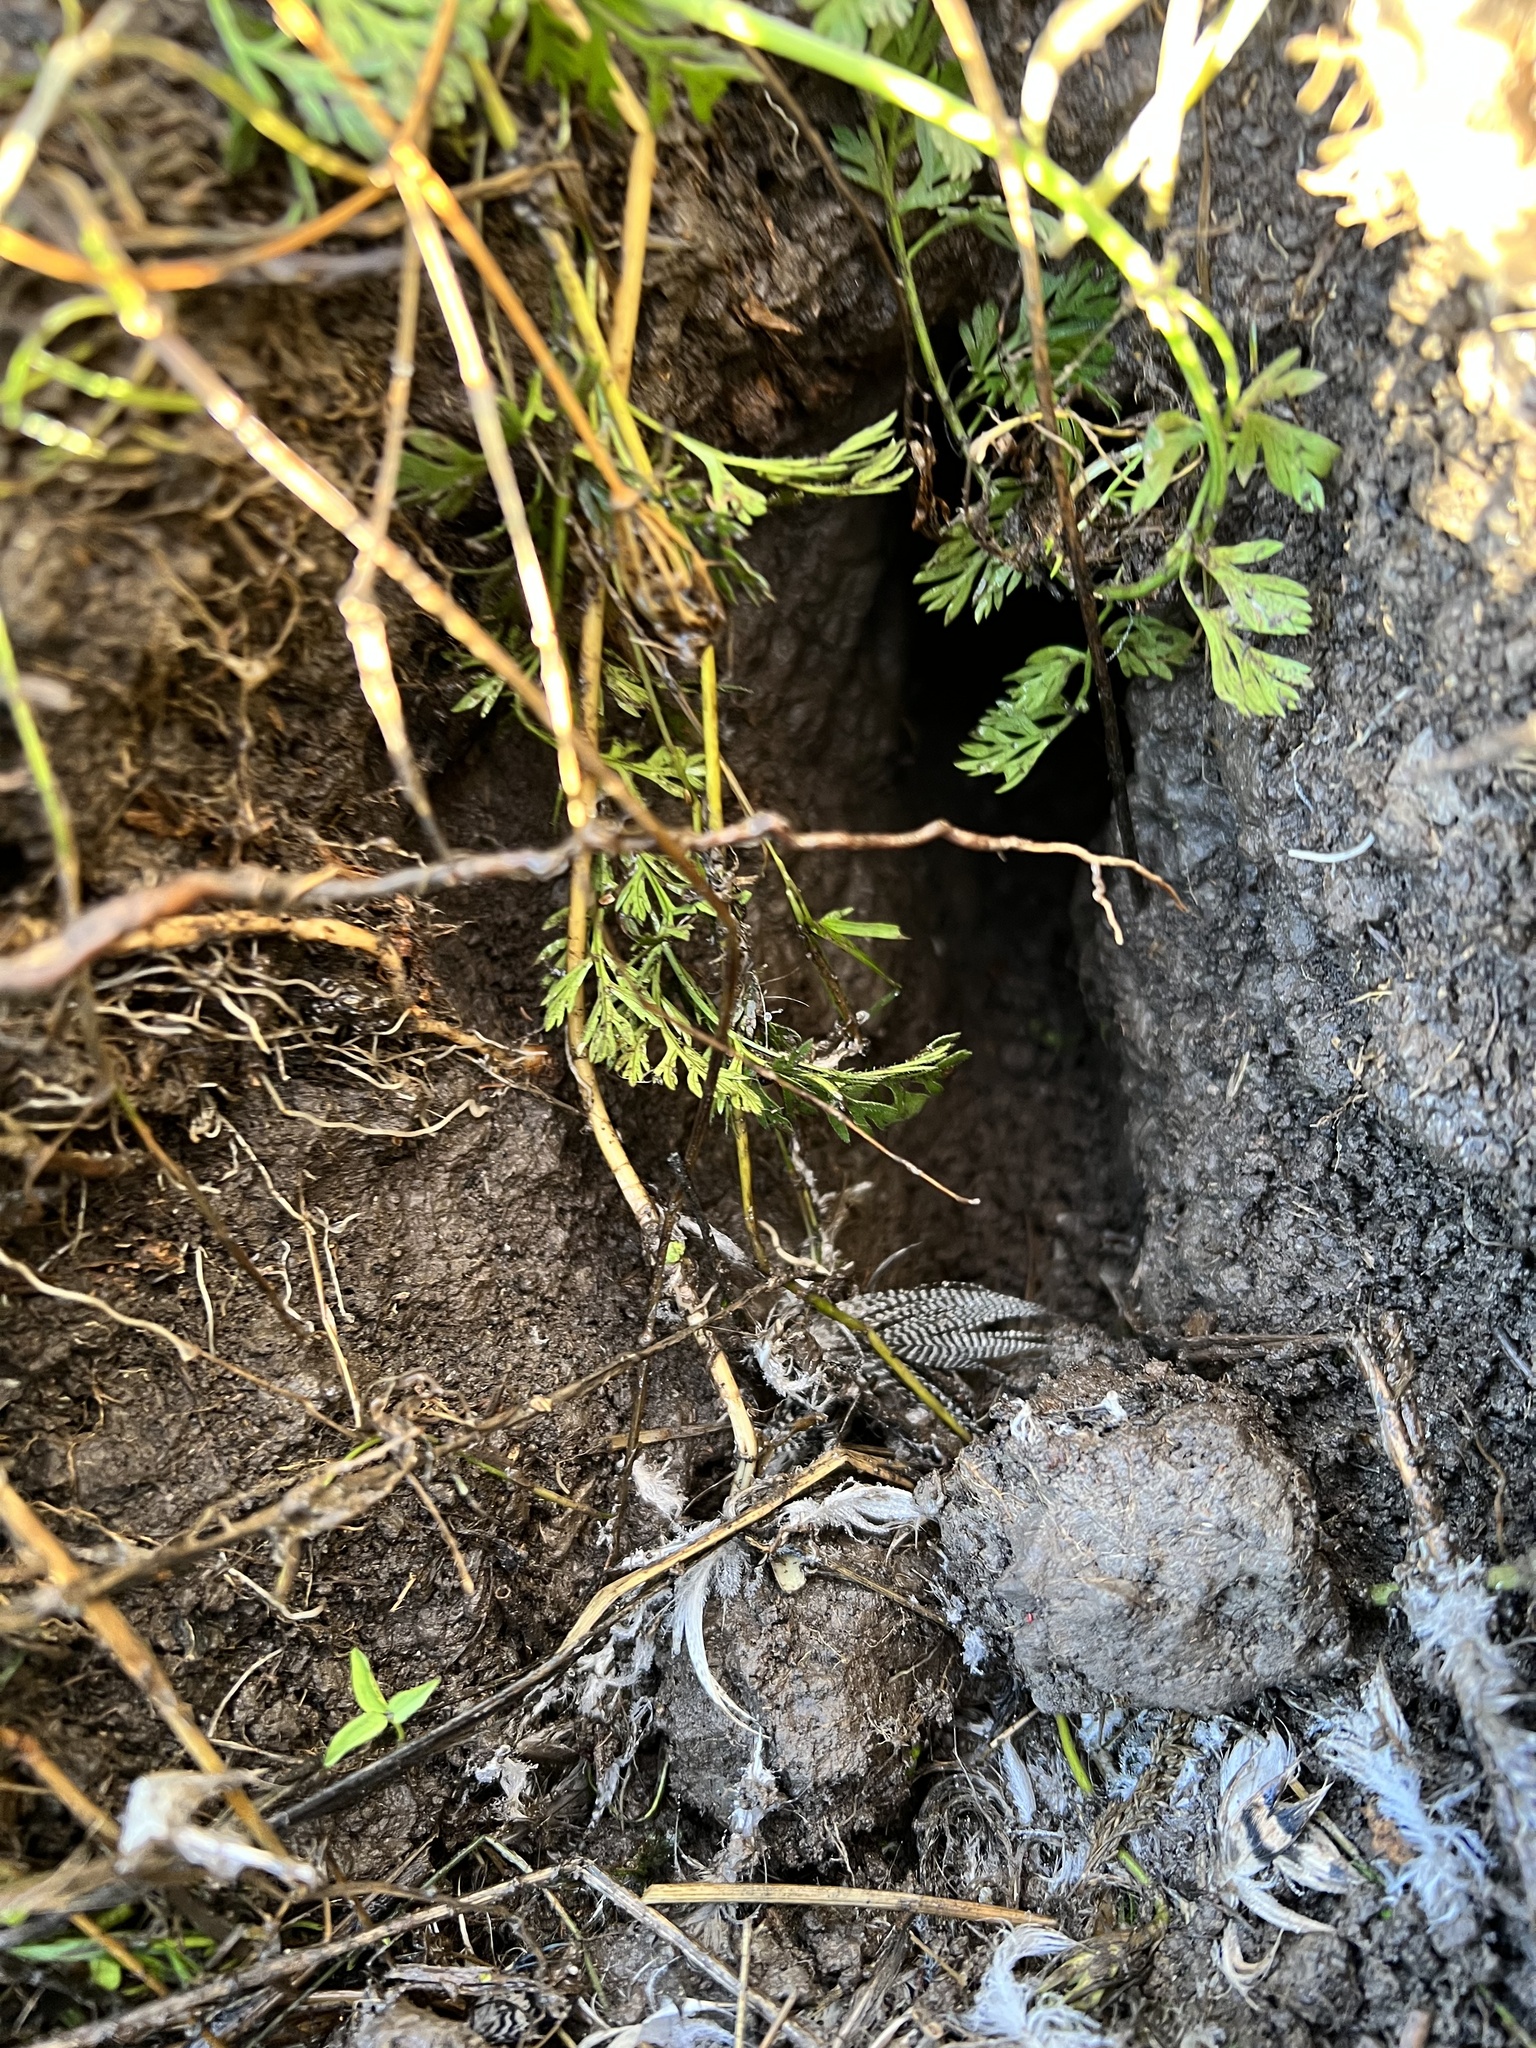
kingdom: Animalia
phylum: Chordata
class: Aves
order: Anseriformes
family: Anatidae
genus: Anas
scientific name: Anas platyrhynchos
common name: Mallard
